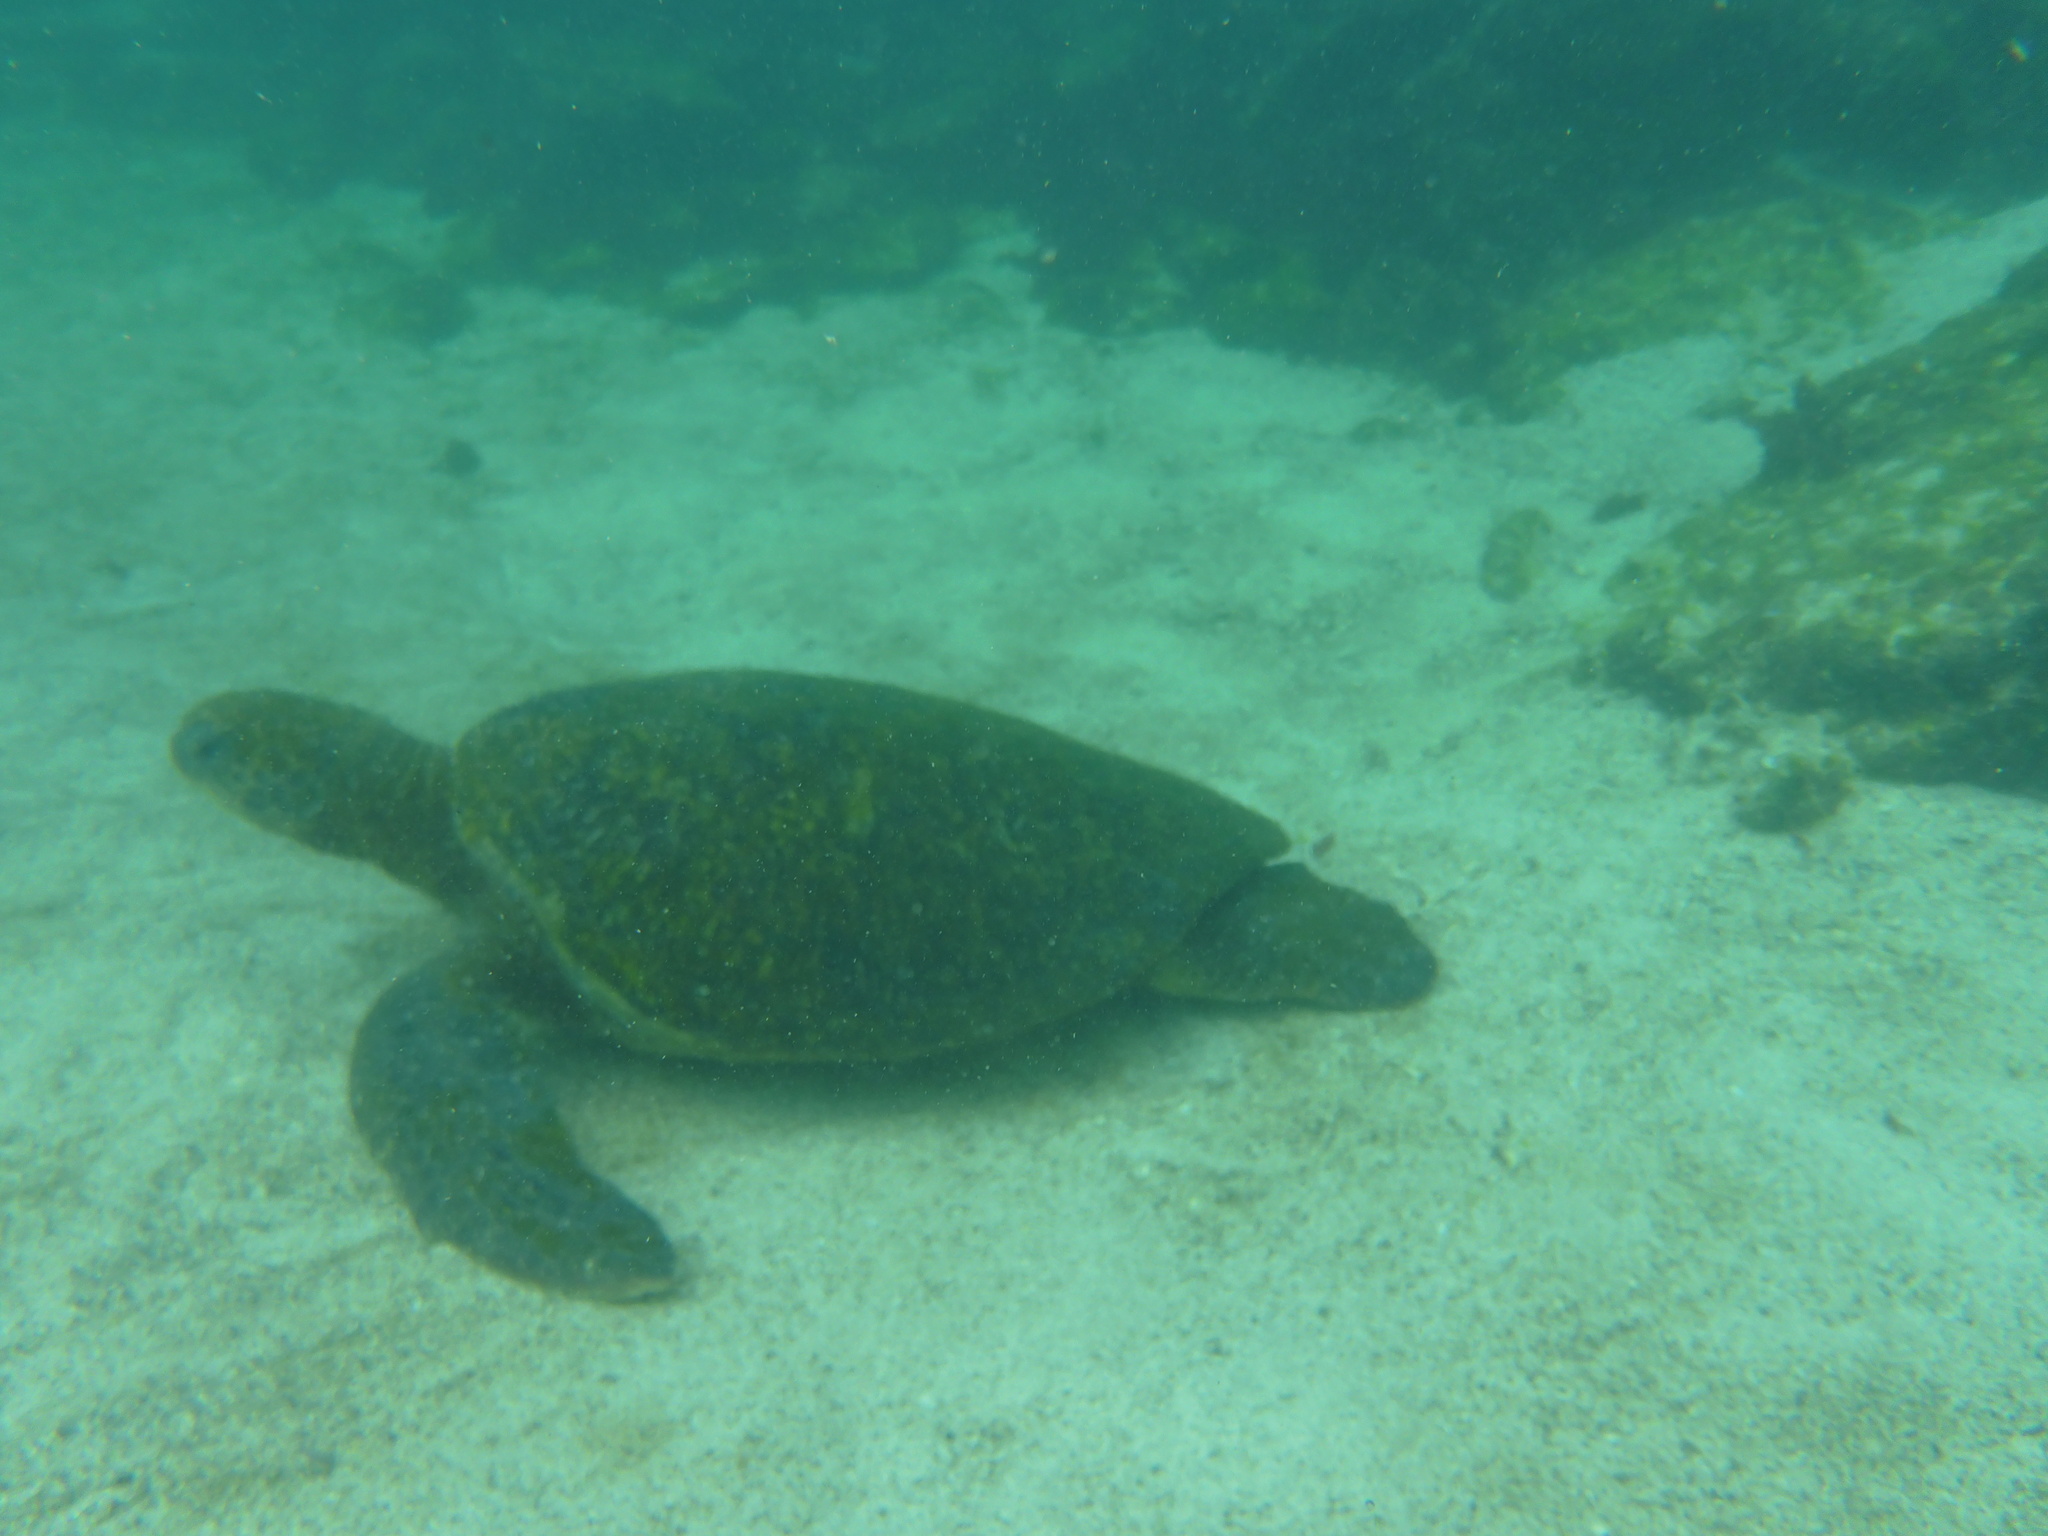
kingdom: Animalia
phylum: Chordata
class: Testudines
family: Cheloniidae
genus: Chelonia
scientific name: Chelonia mydas
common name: Green turtle
